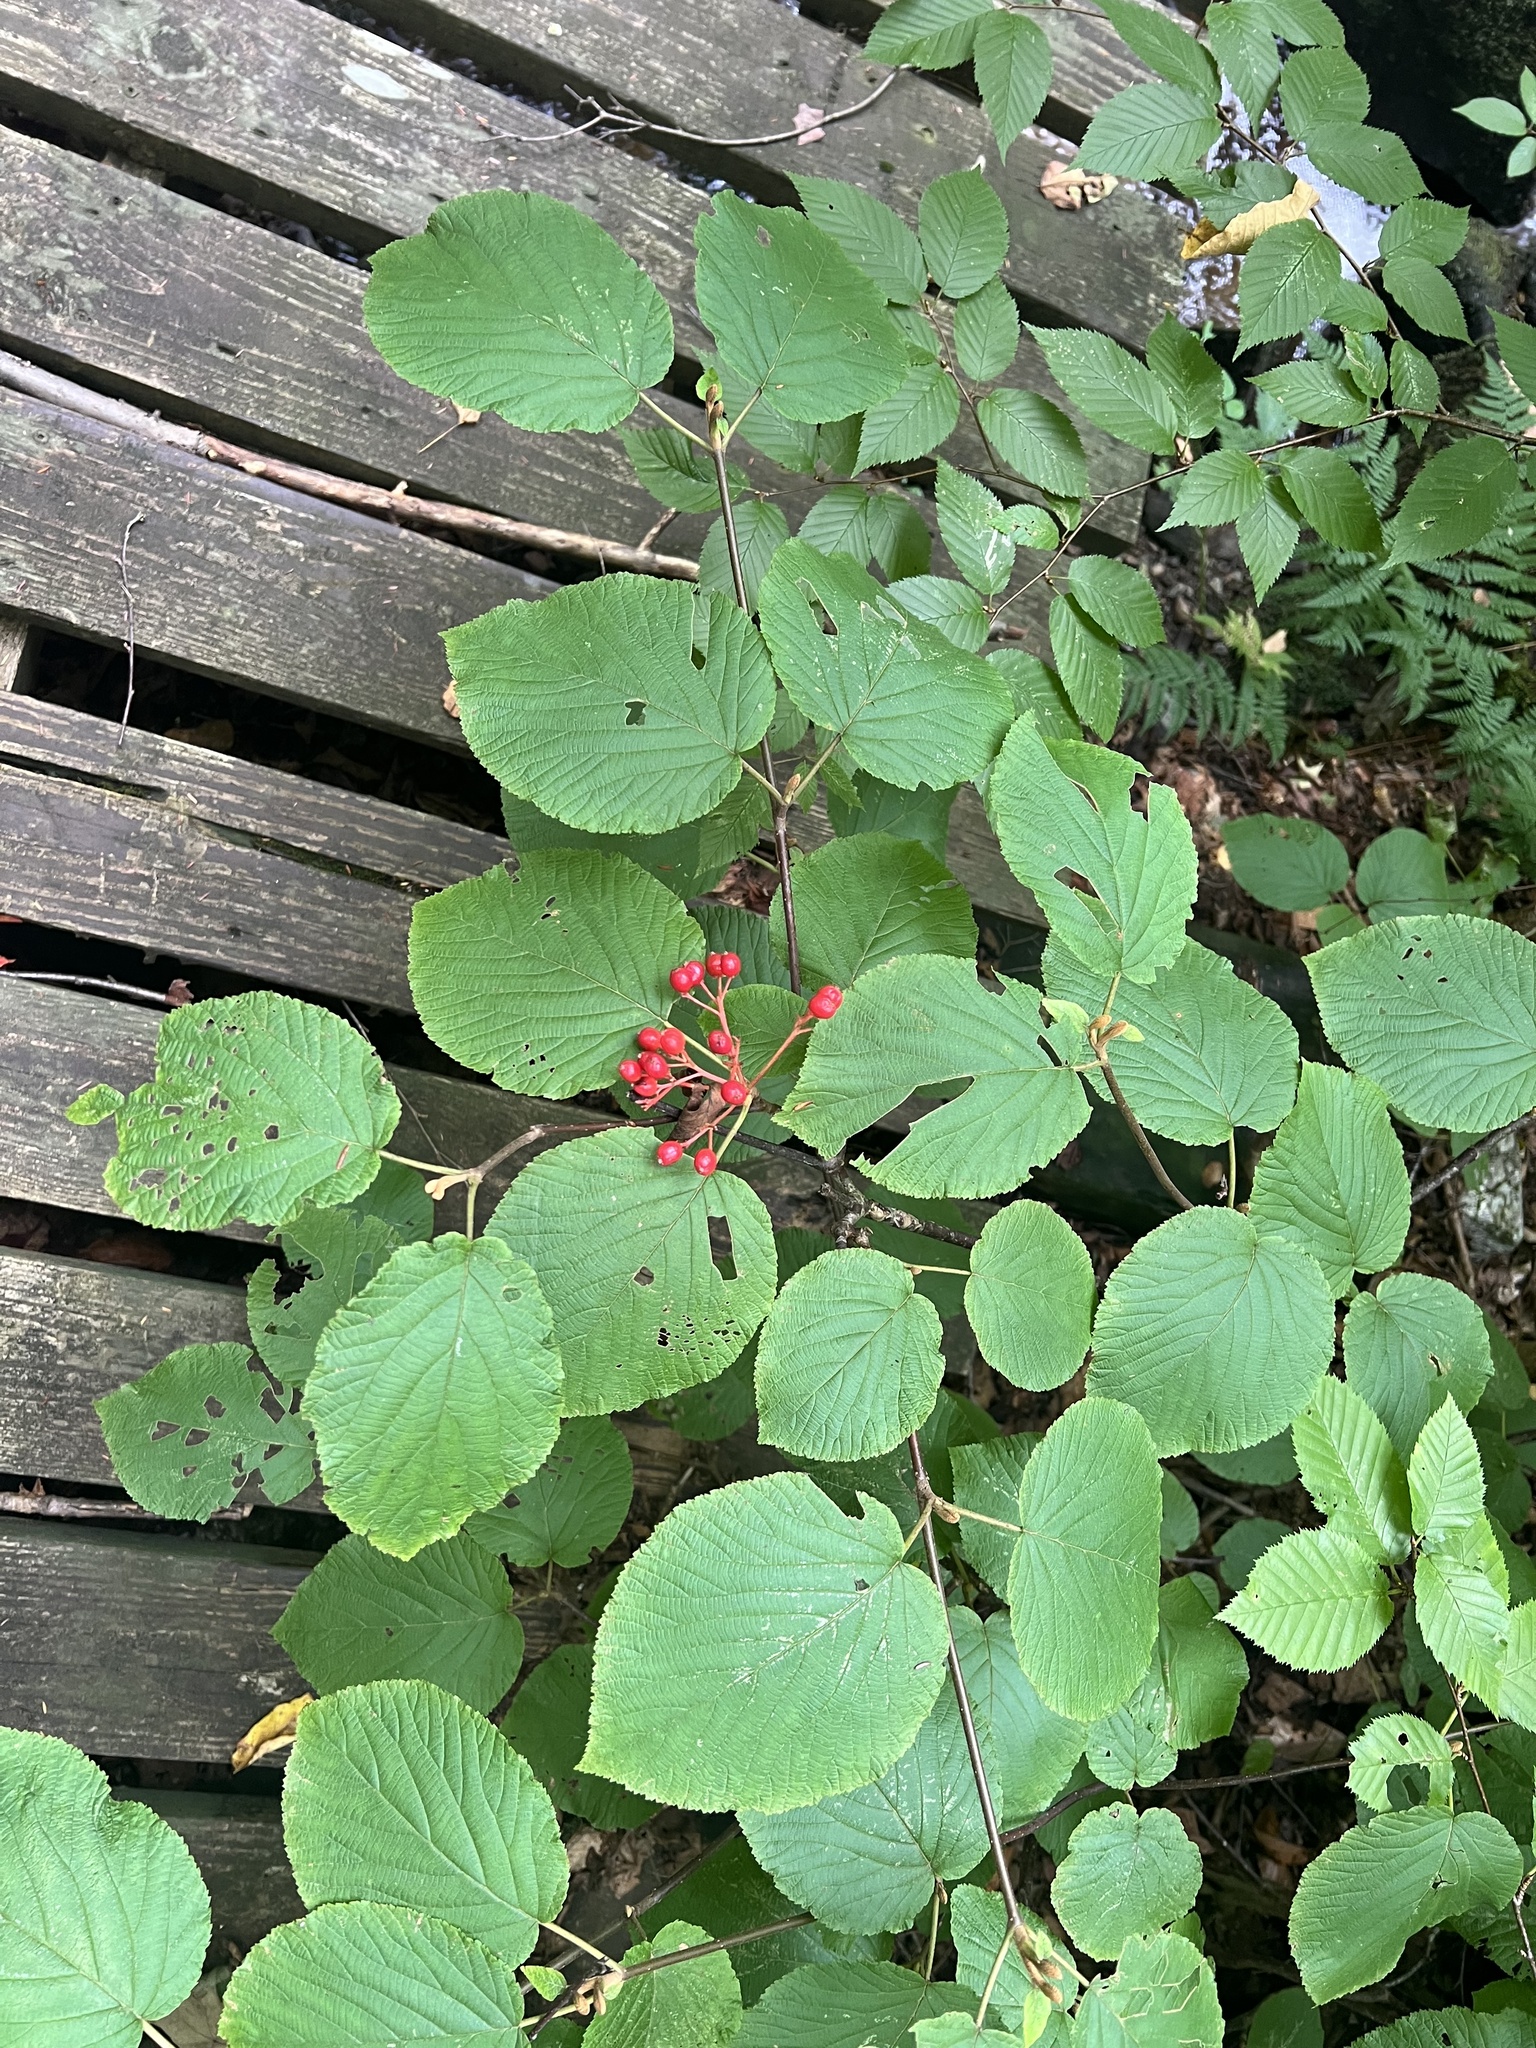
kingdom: Plantae
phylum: Tracheophyta
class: Magnoliopsida
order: Dipsacales
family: Viburnaceae
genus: Viburnum
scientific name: Viburnum lantanoides
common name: Hobblebush
